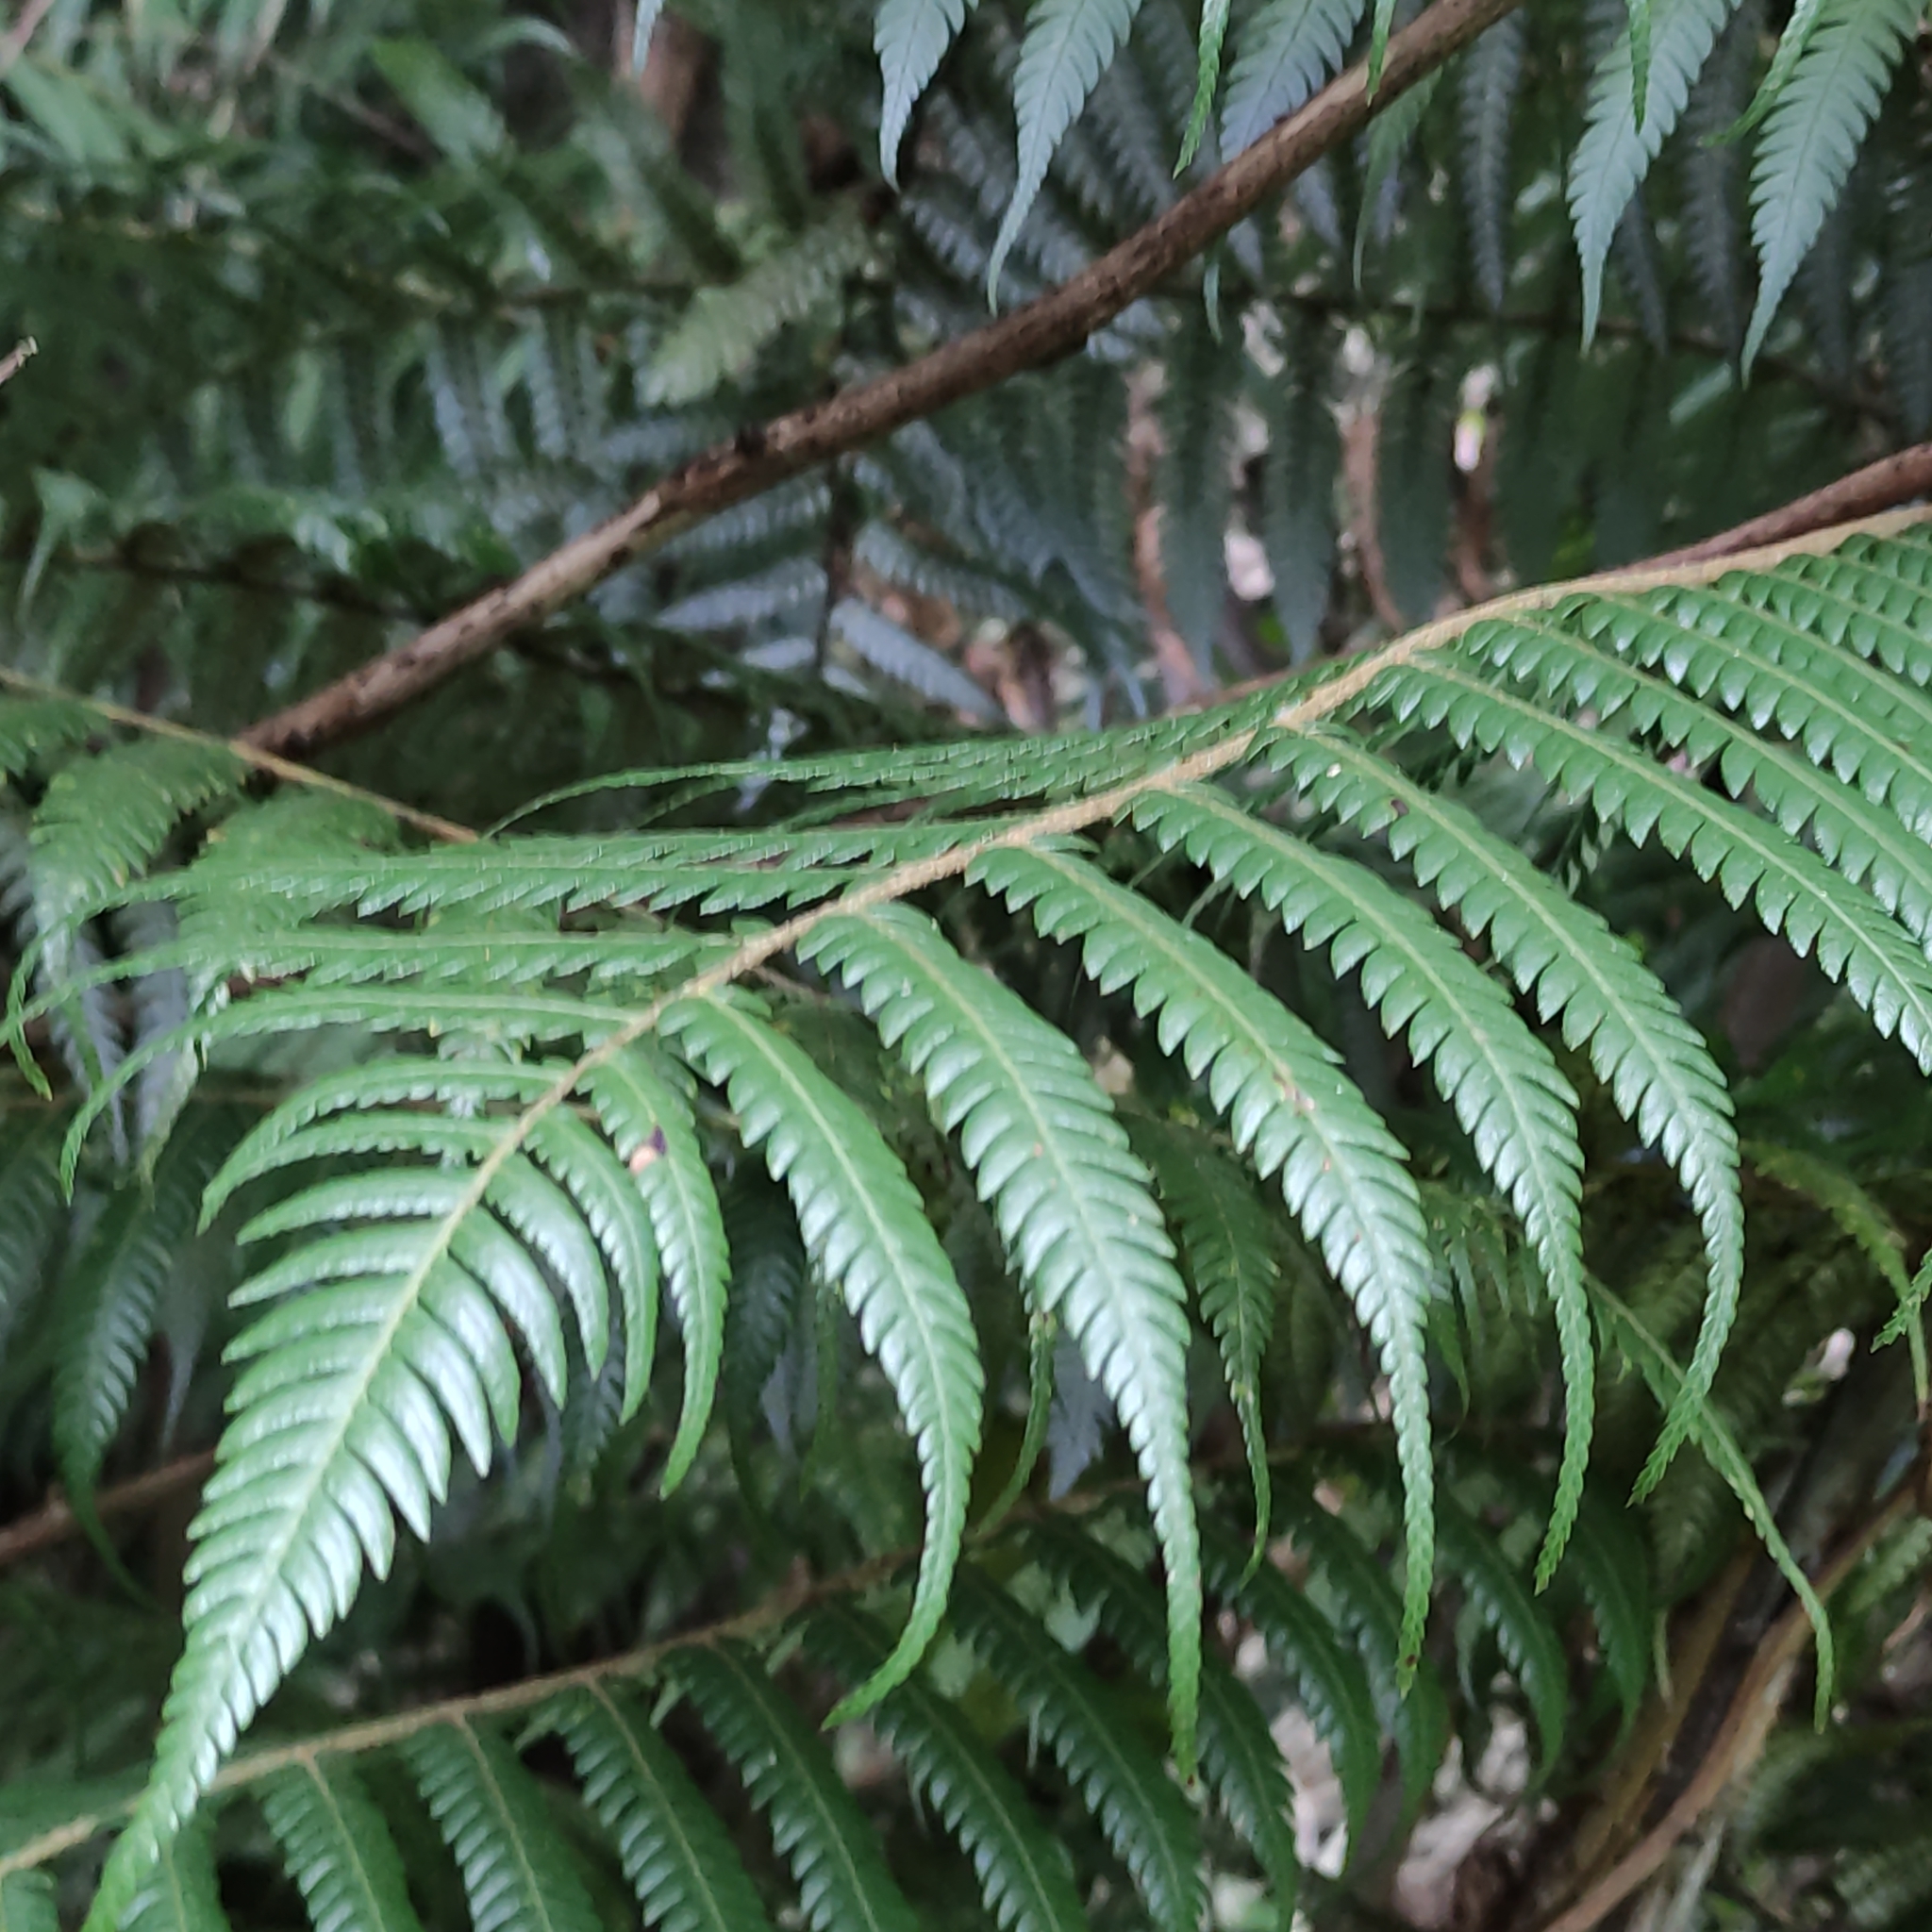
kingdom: Plantae
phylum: Tracheophyta
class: Polypodiopsida
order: Cyatheales
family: Cyatheaceae
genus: Alsophila
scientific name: Alsophila dealbata
